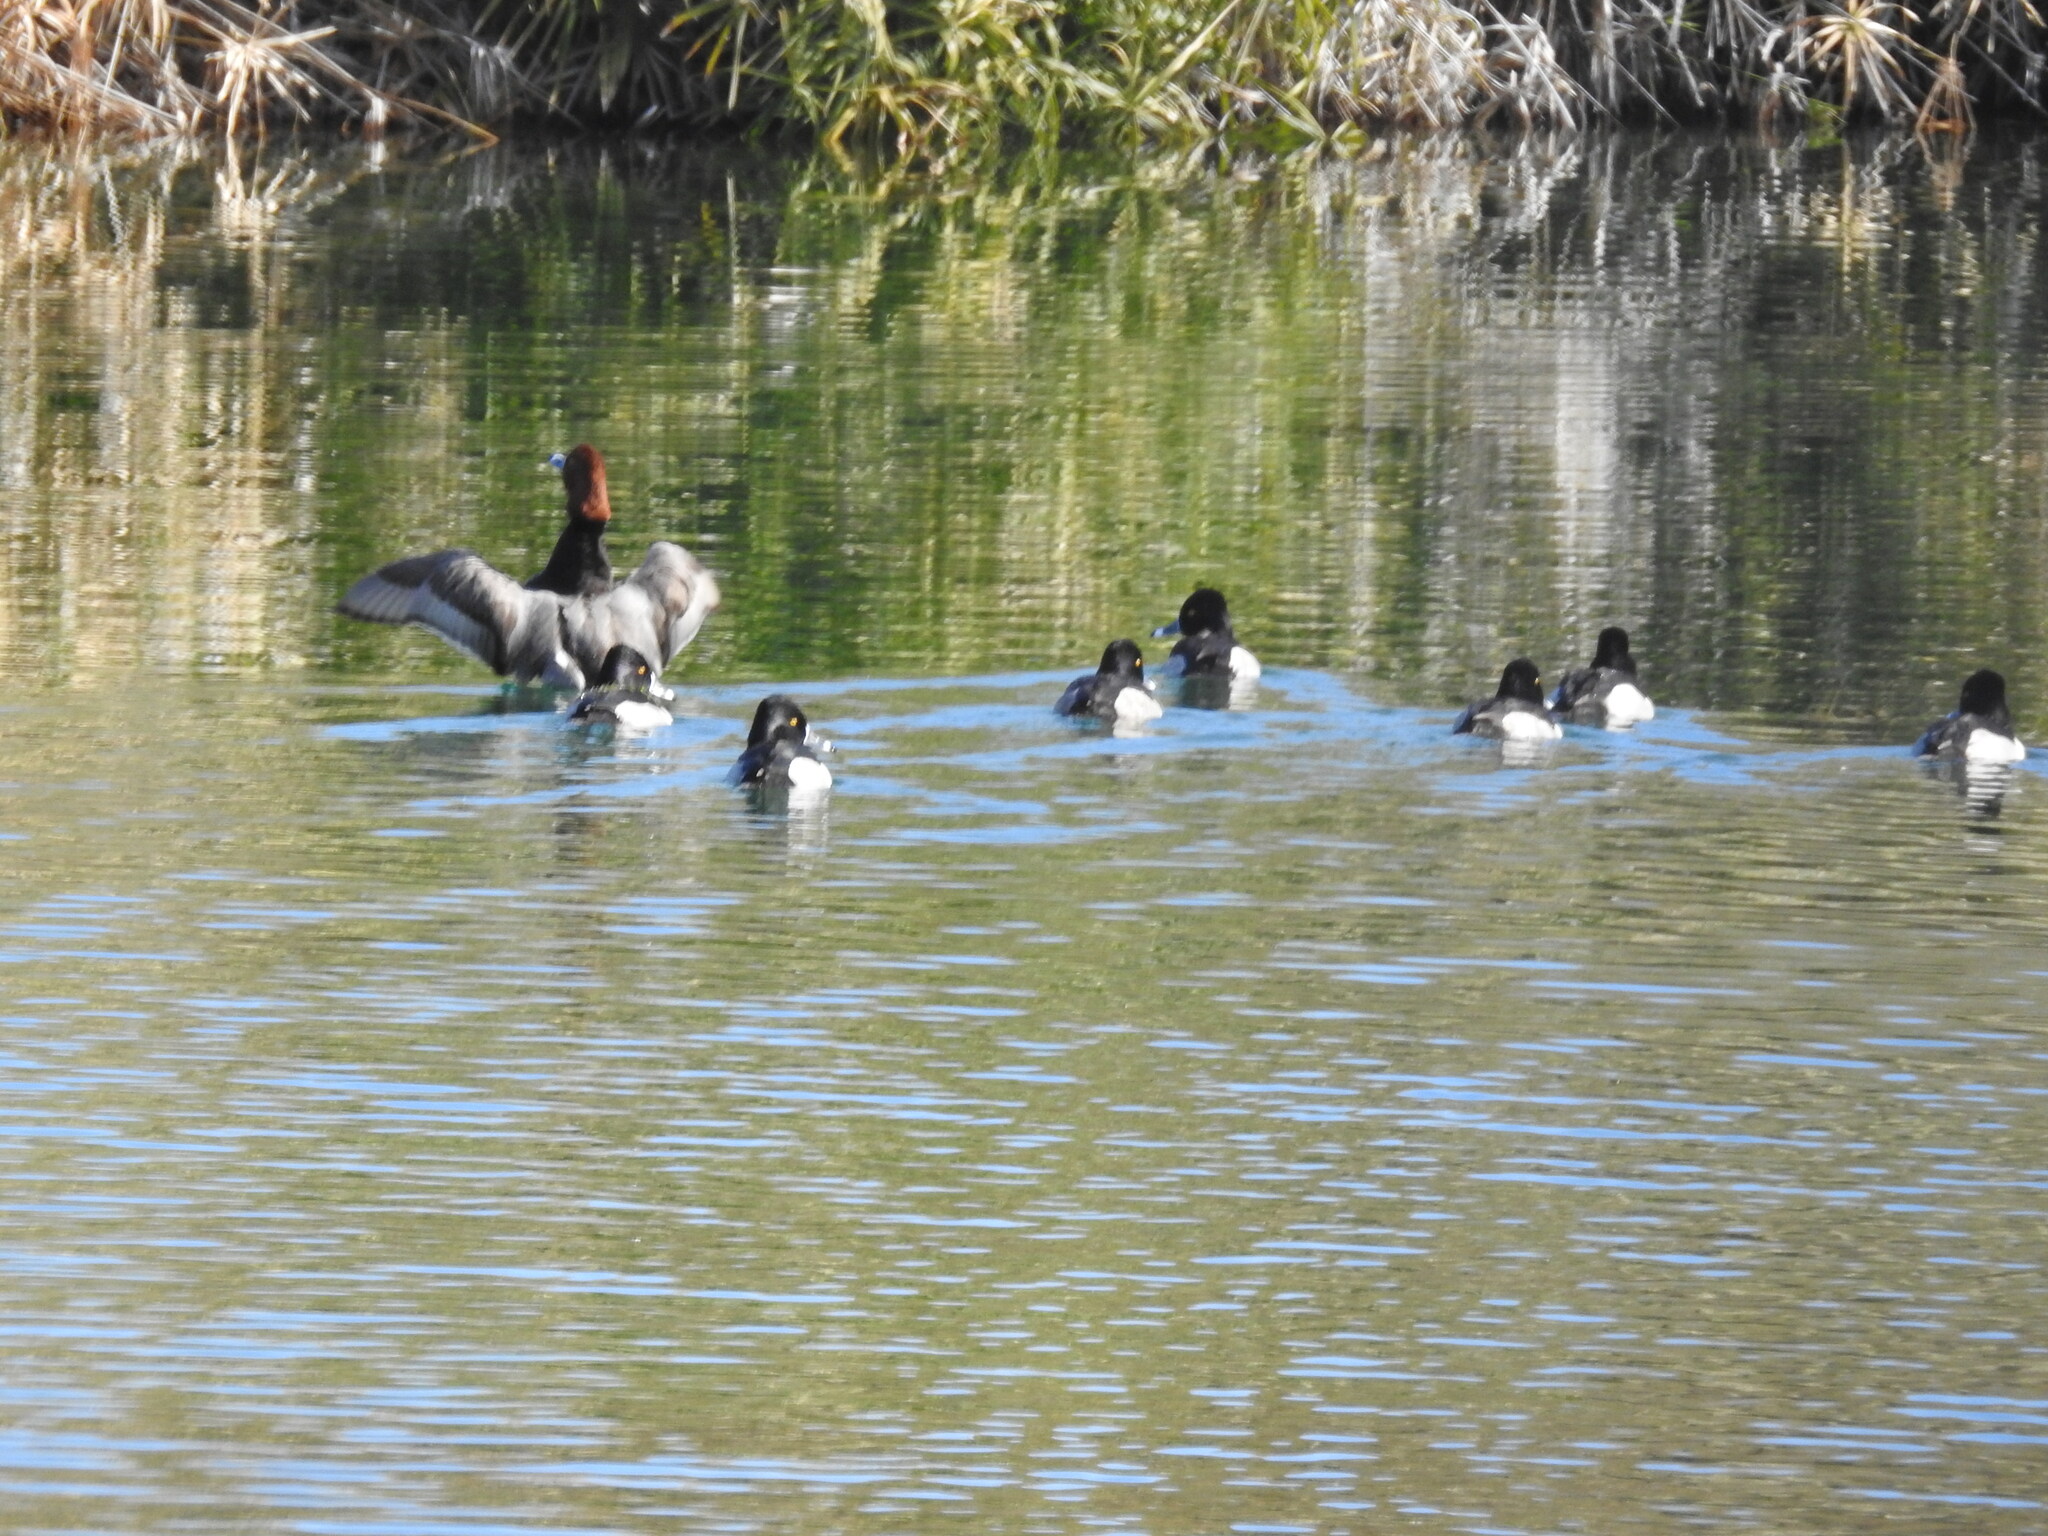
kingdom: Animalia
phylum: Chordata
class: Aves
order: Anseriformes
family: Anatidae
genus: Aythya
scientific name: Aythya collaris
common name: Ring-necked duck
